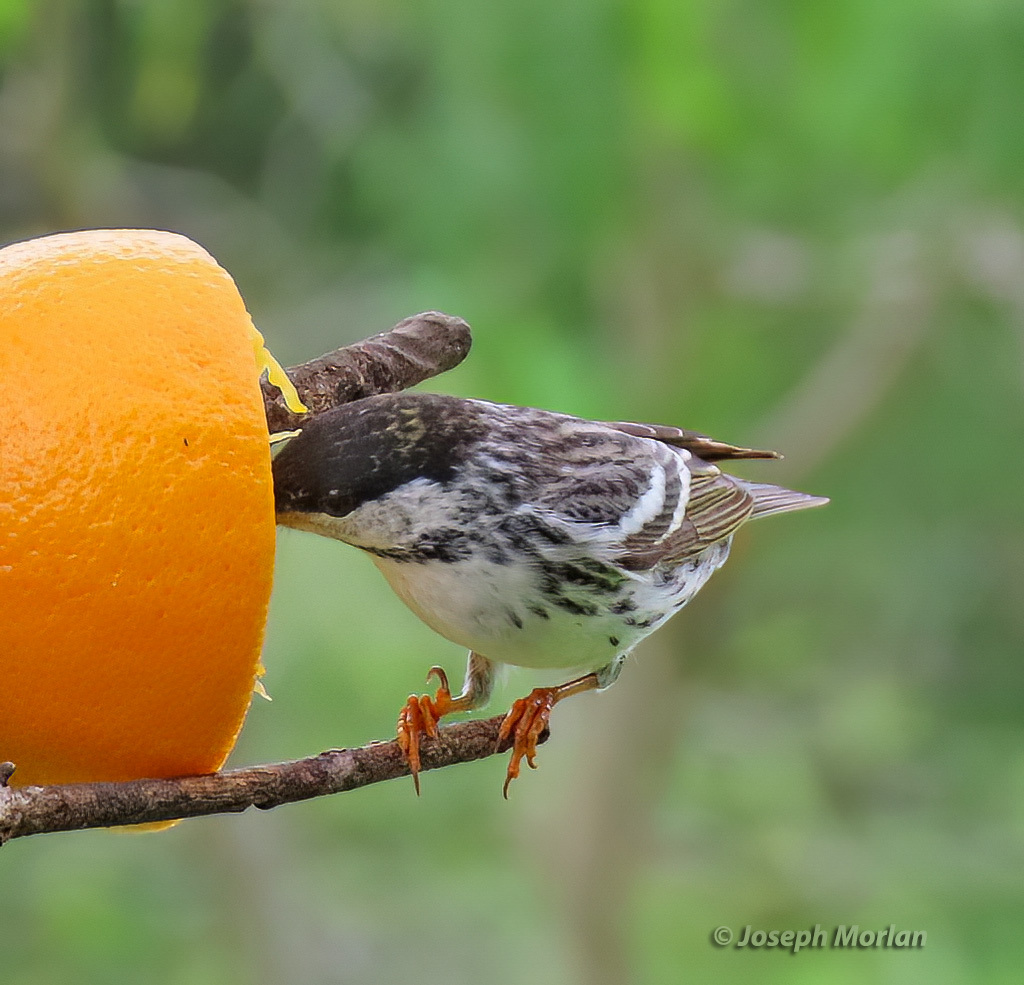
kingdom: Animalia
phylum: Chordata
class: Aves
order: Passeriformes
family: Parulidae
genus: Setophaga
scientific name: Setophaga striata
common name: Blackpoll warbler
